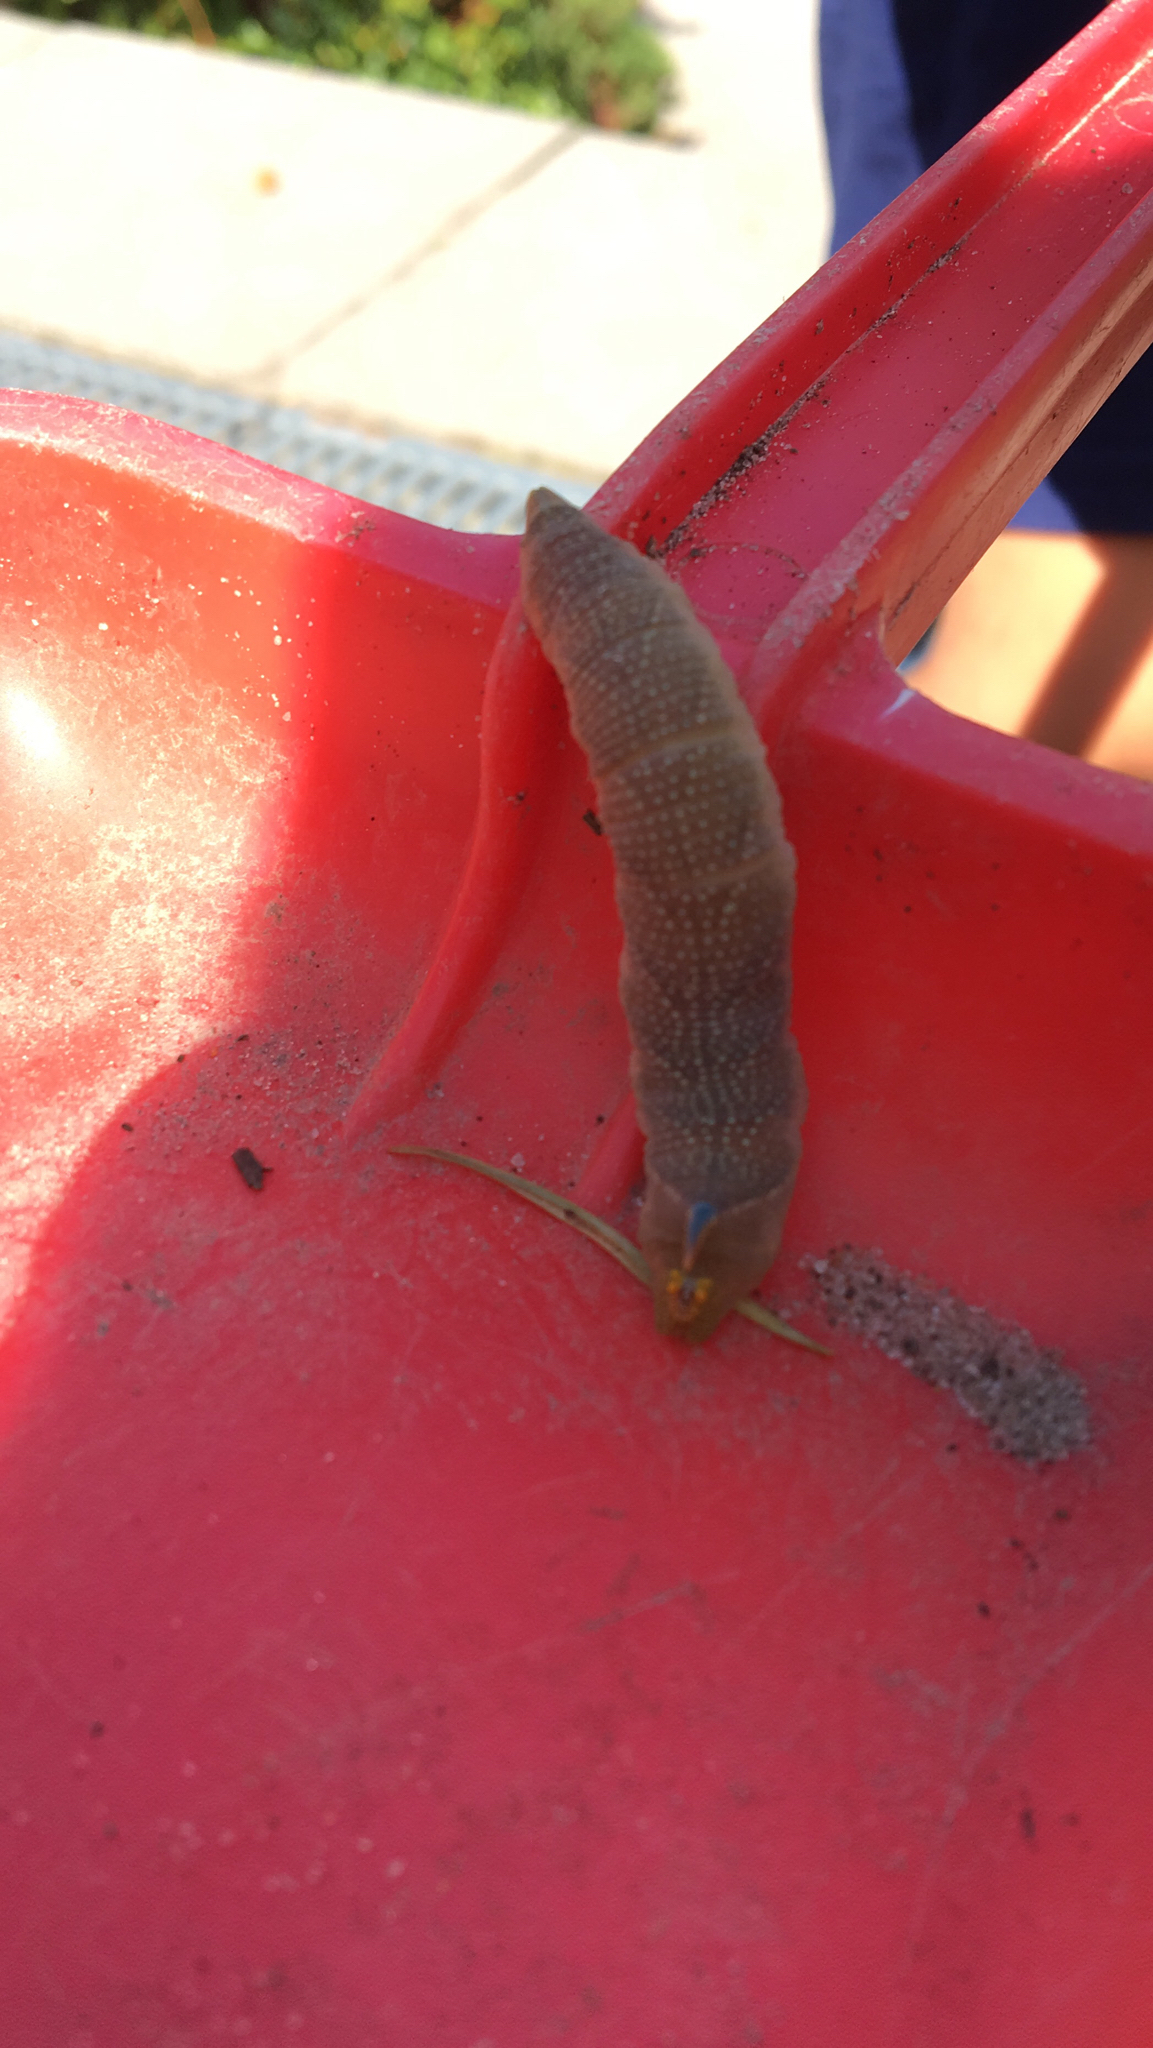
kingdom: Animalia
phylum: Arthropoda
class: Insecta
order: Lepidoptera
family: Sphingidae
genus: Mimas
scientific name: Mimas tiliae
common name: Lime hawk-moth
